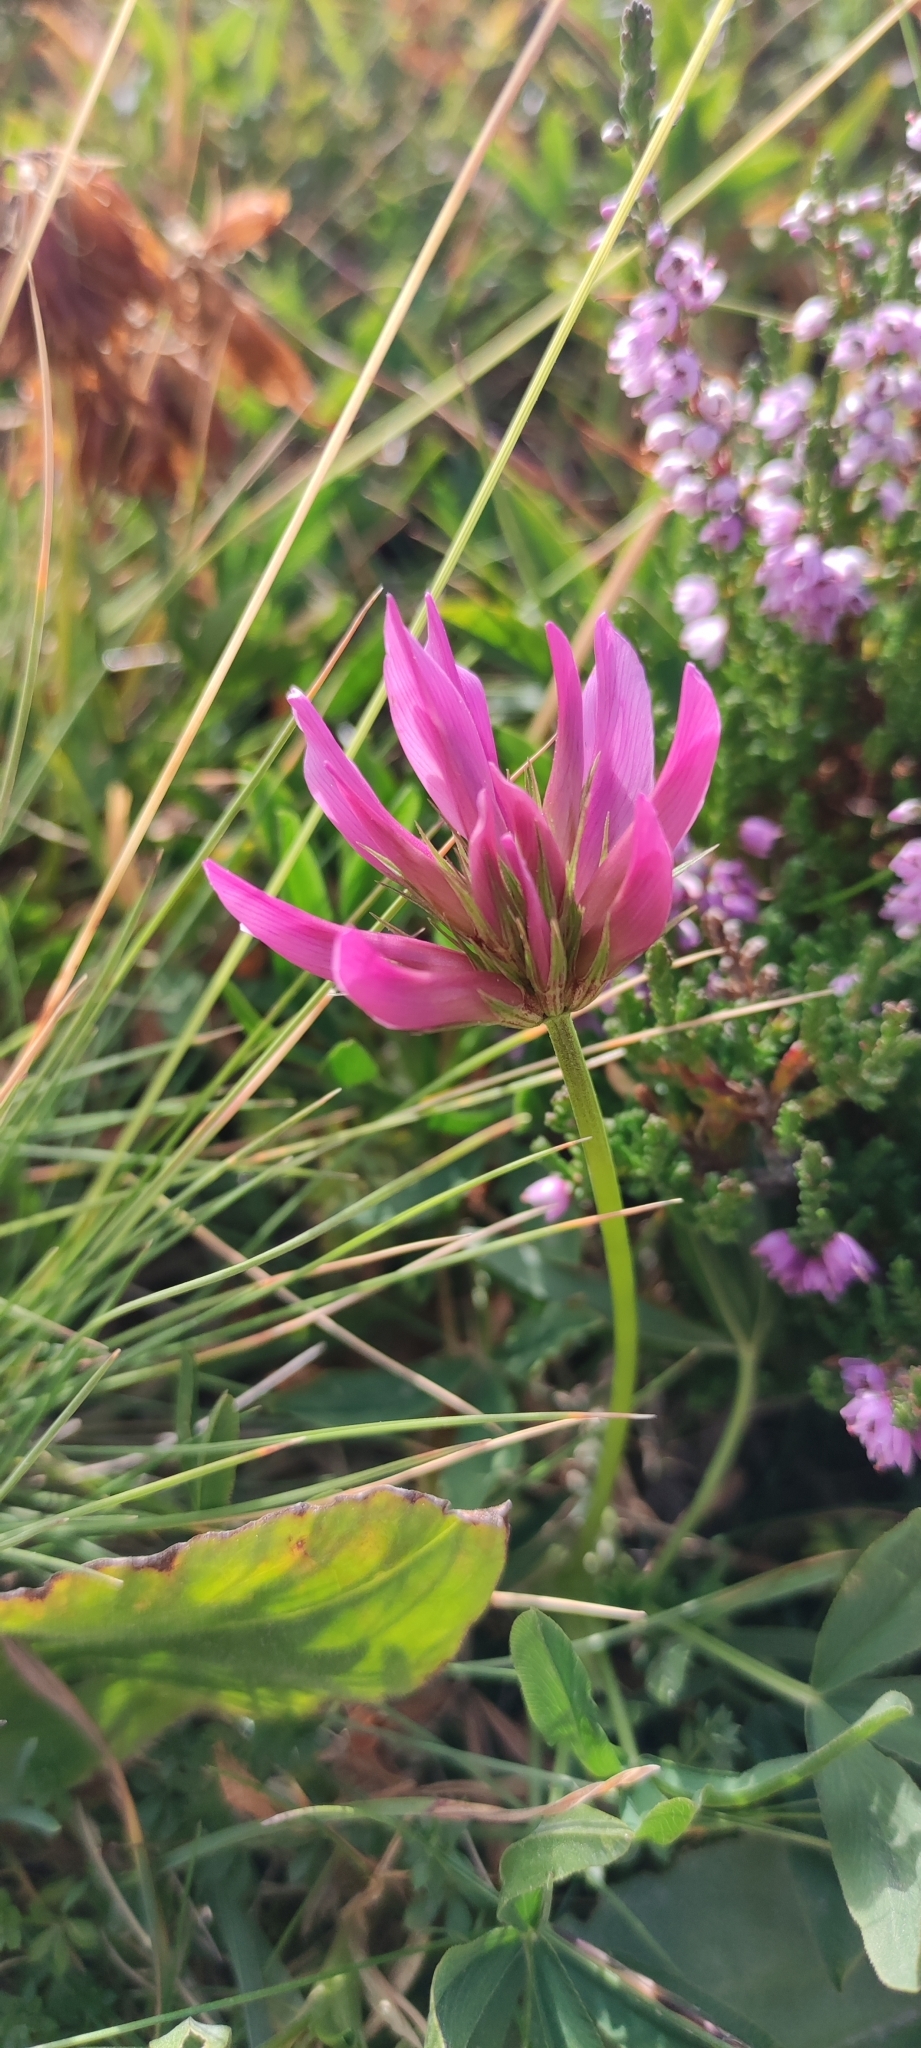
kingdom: Plantae
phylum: Tracheophyta
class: Magnoliopsida
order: Fabales
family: Fabaceae
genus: Trifolium
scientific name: Trifolium alpinum
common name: Alpine clover
